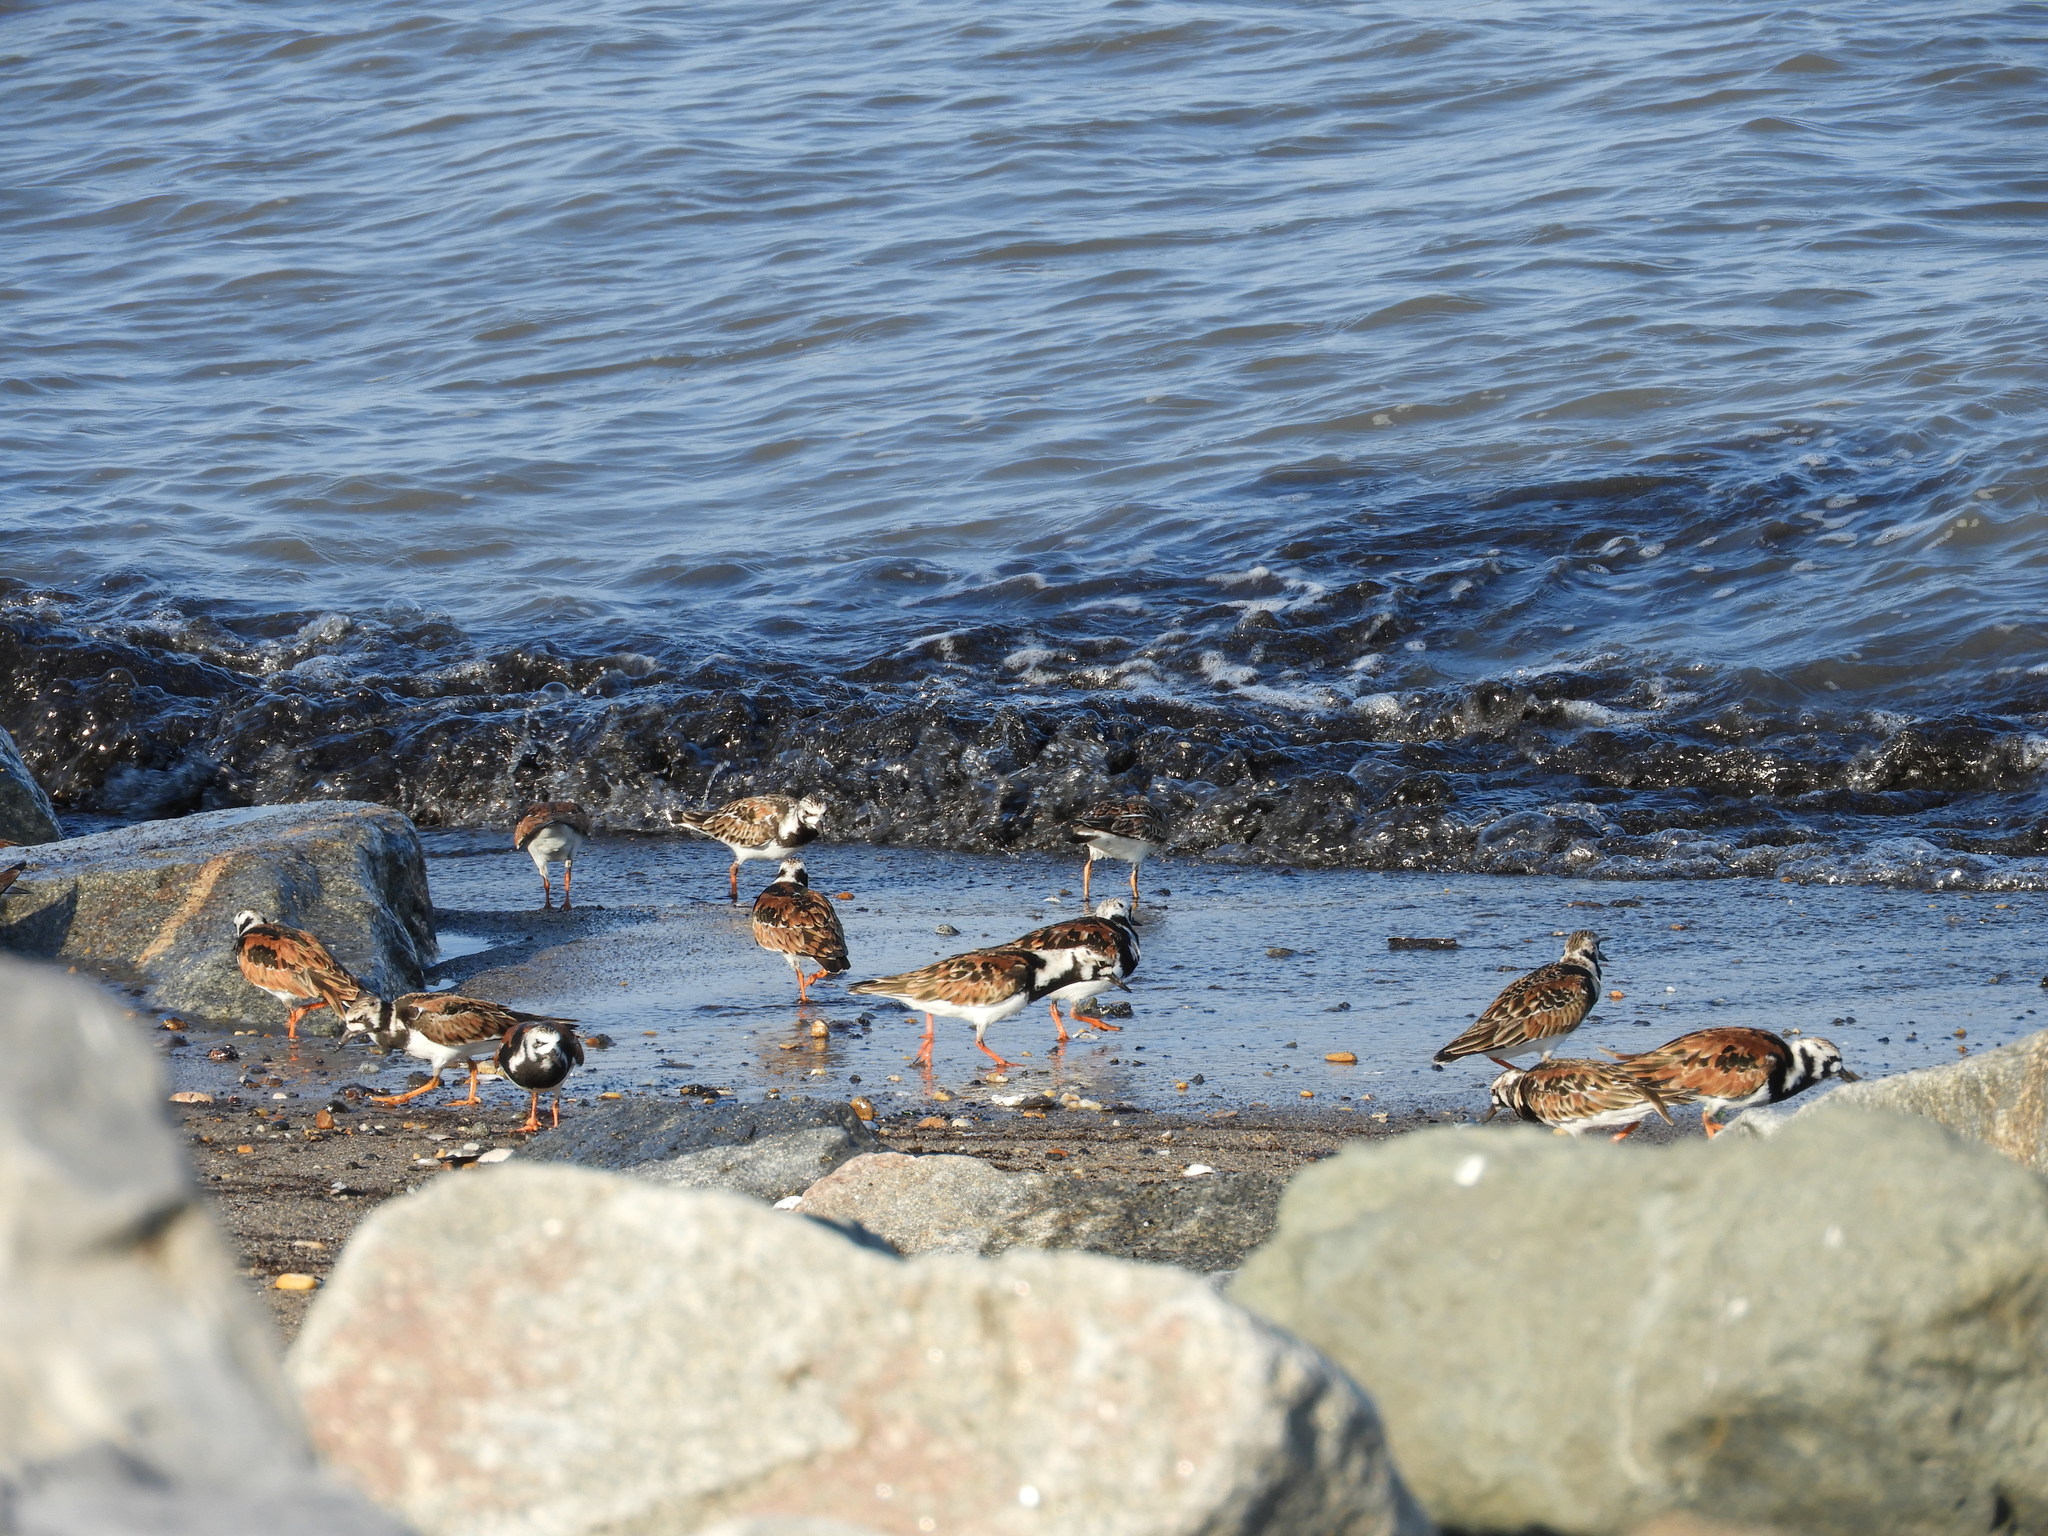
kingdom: Animalia
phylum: Chordata
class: Aves
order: Charadriiformes
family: Scolopacidae
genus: Arenaria
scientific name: Arenaria interpres
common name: Ruddy turnstone
